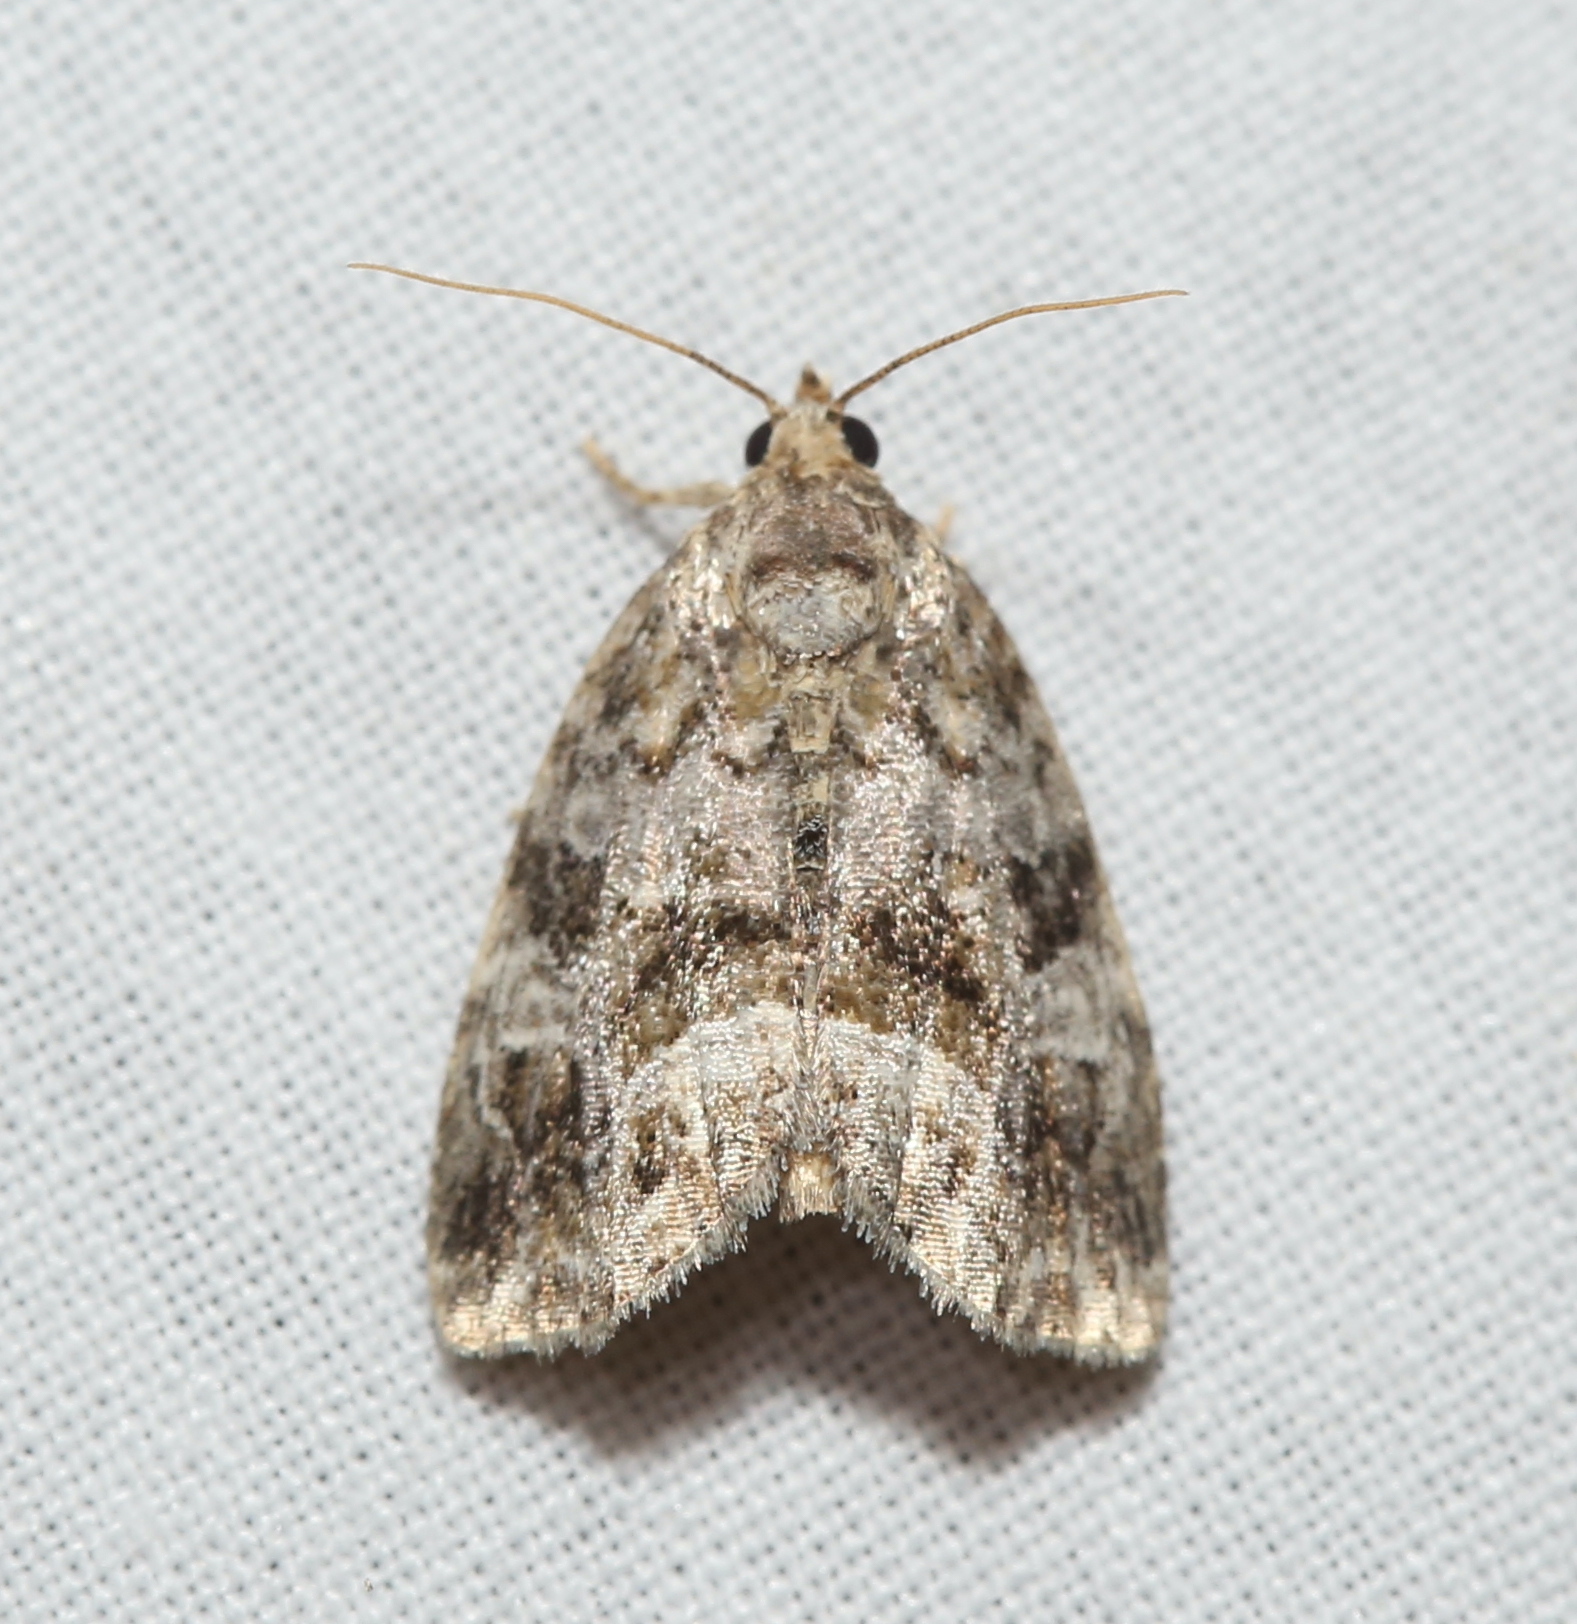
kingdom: Animalia
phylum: Arthropoda
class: Insecta
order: Lepidoptera
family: Noctuidae
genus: Protodeltote
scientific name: Protodeltote muscosula
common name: Large mossy glyph
